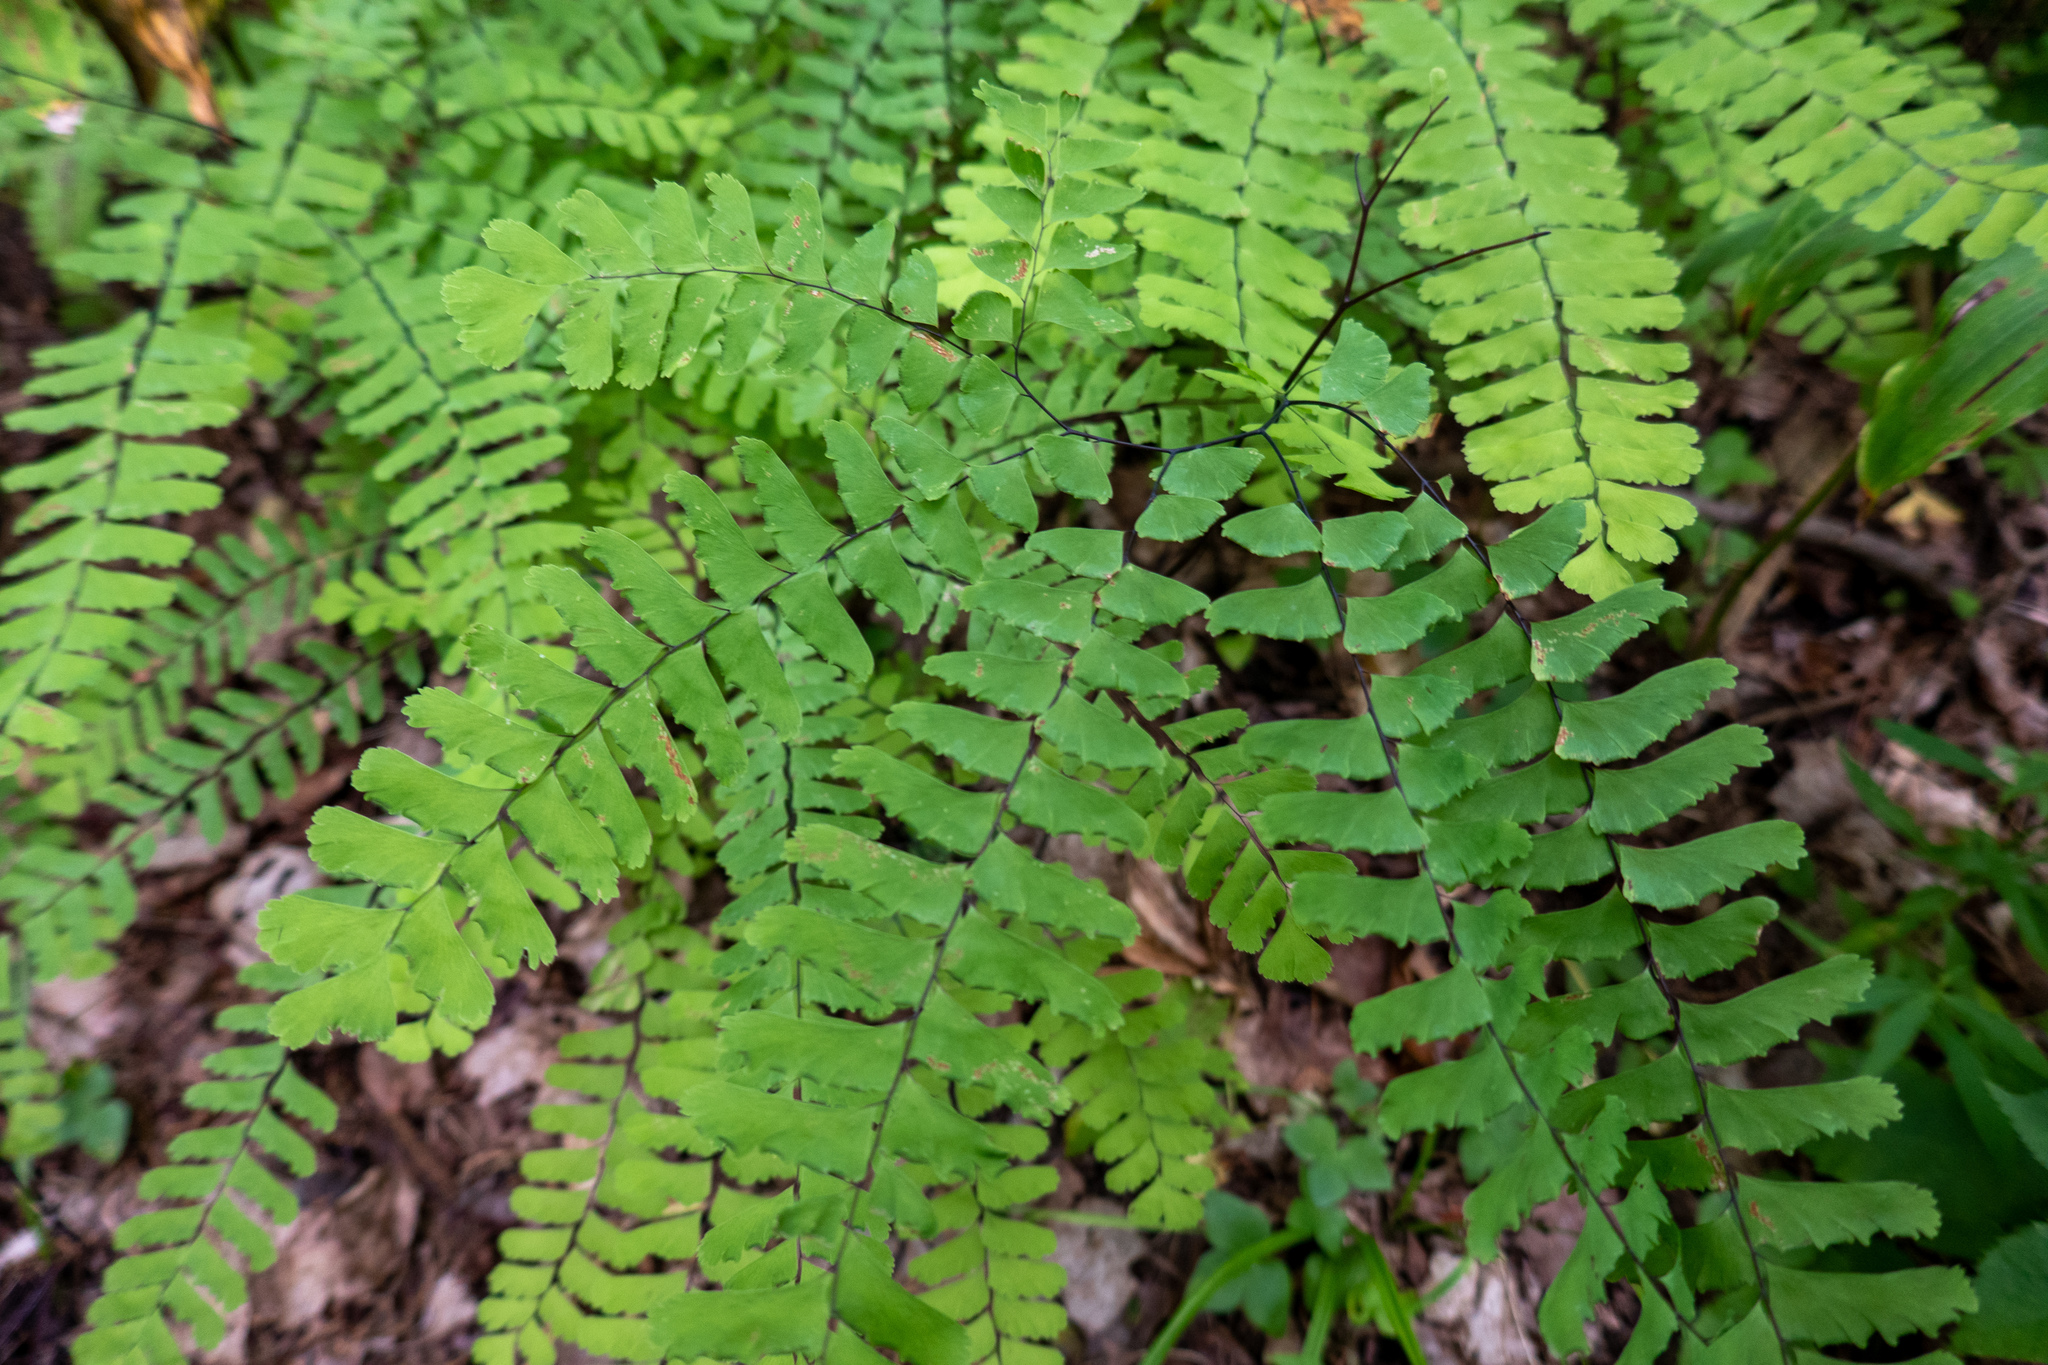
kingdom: Plantae
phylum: Tracheophyta
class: Polypodiopsida
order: Polypodiales
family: Pteridaceae
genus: Adiantum
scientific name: Adiantum pedatum
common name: Five-finger fern
